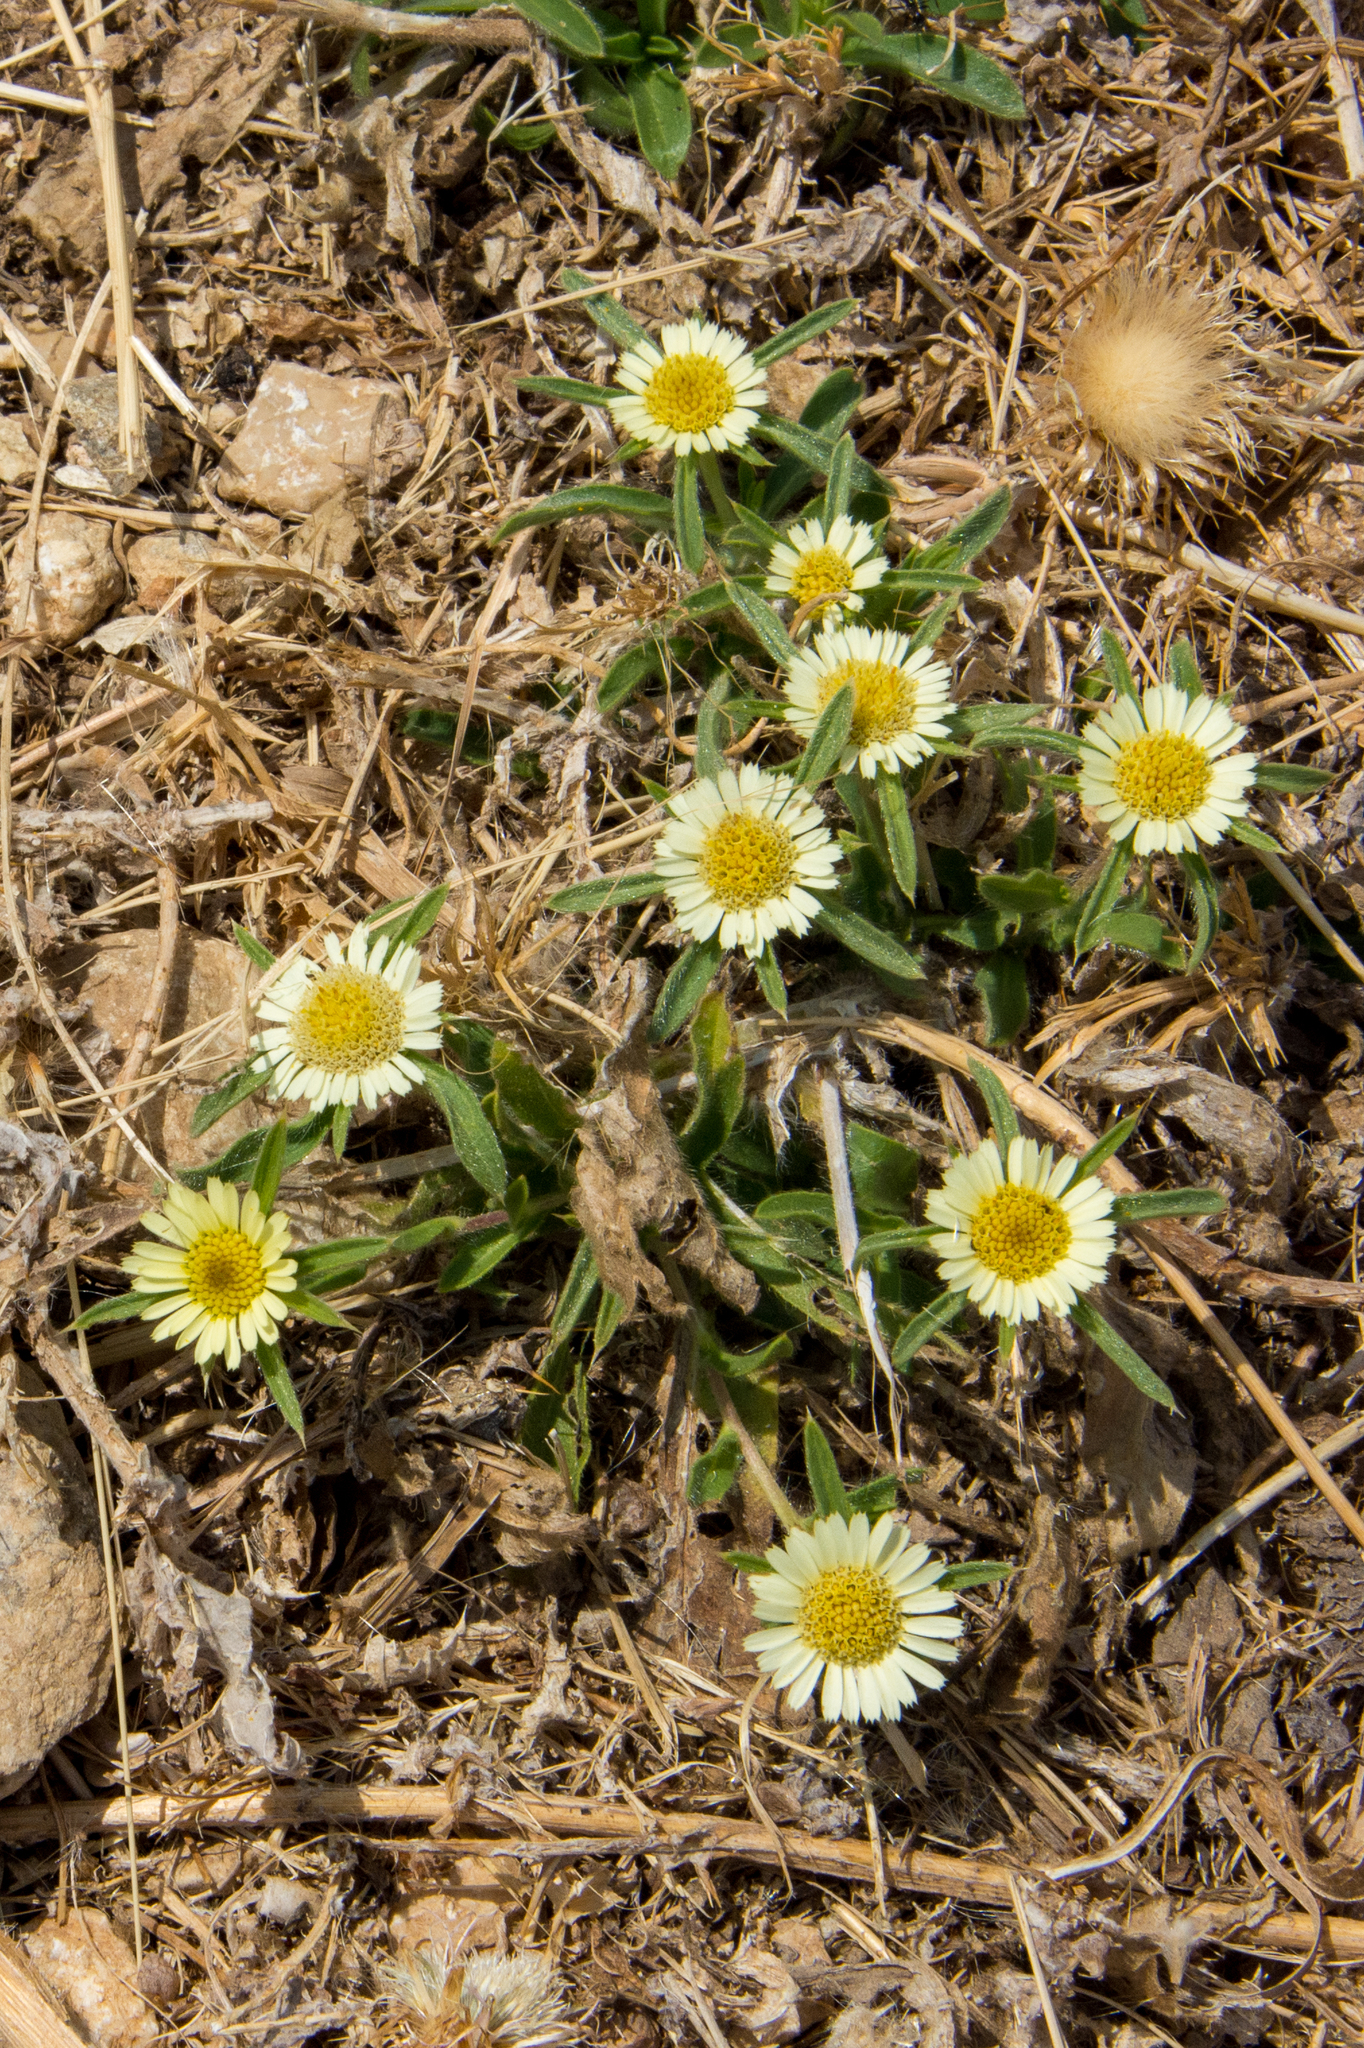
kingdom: Plantae
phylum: Tracheophyta
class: Magnoliopsida
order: Asterales
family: Asteraceae
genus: Pallenis
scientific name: Pallenis spinosa
